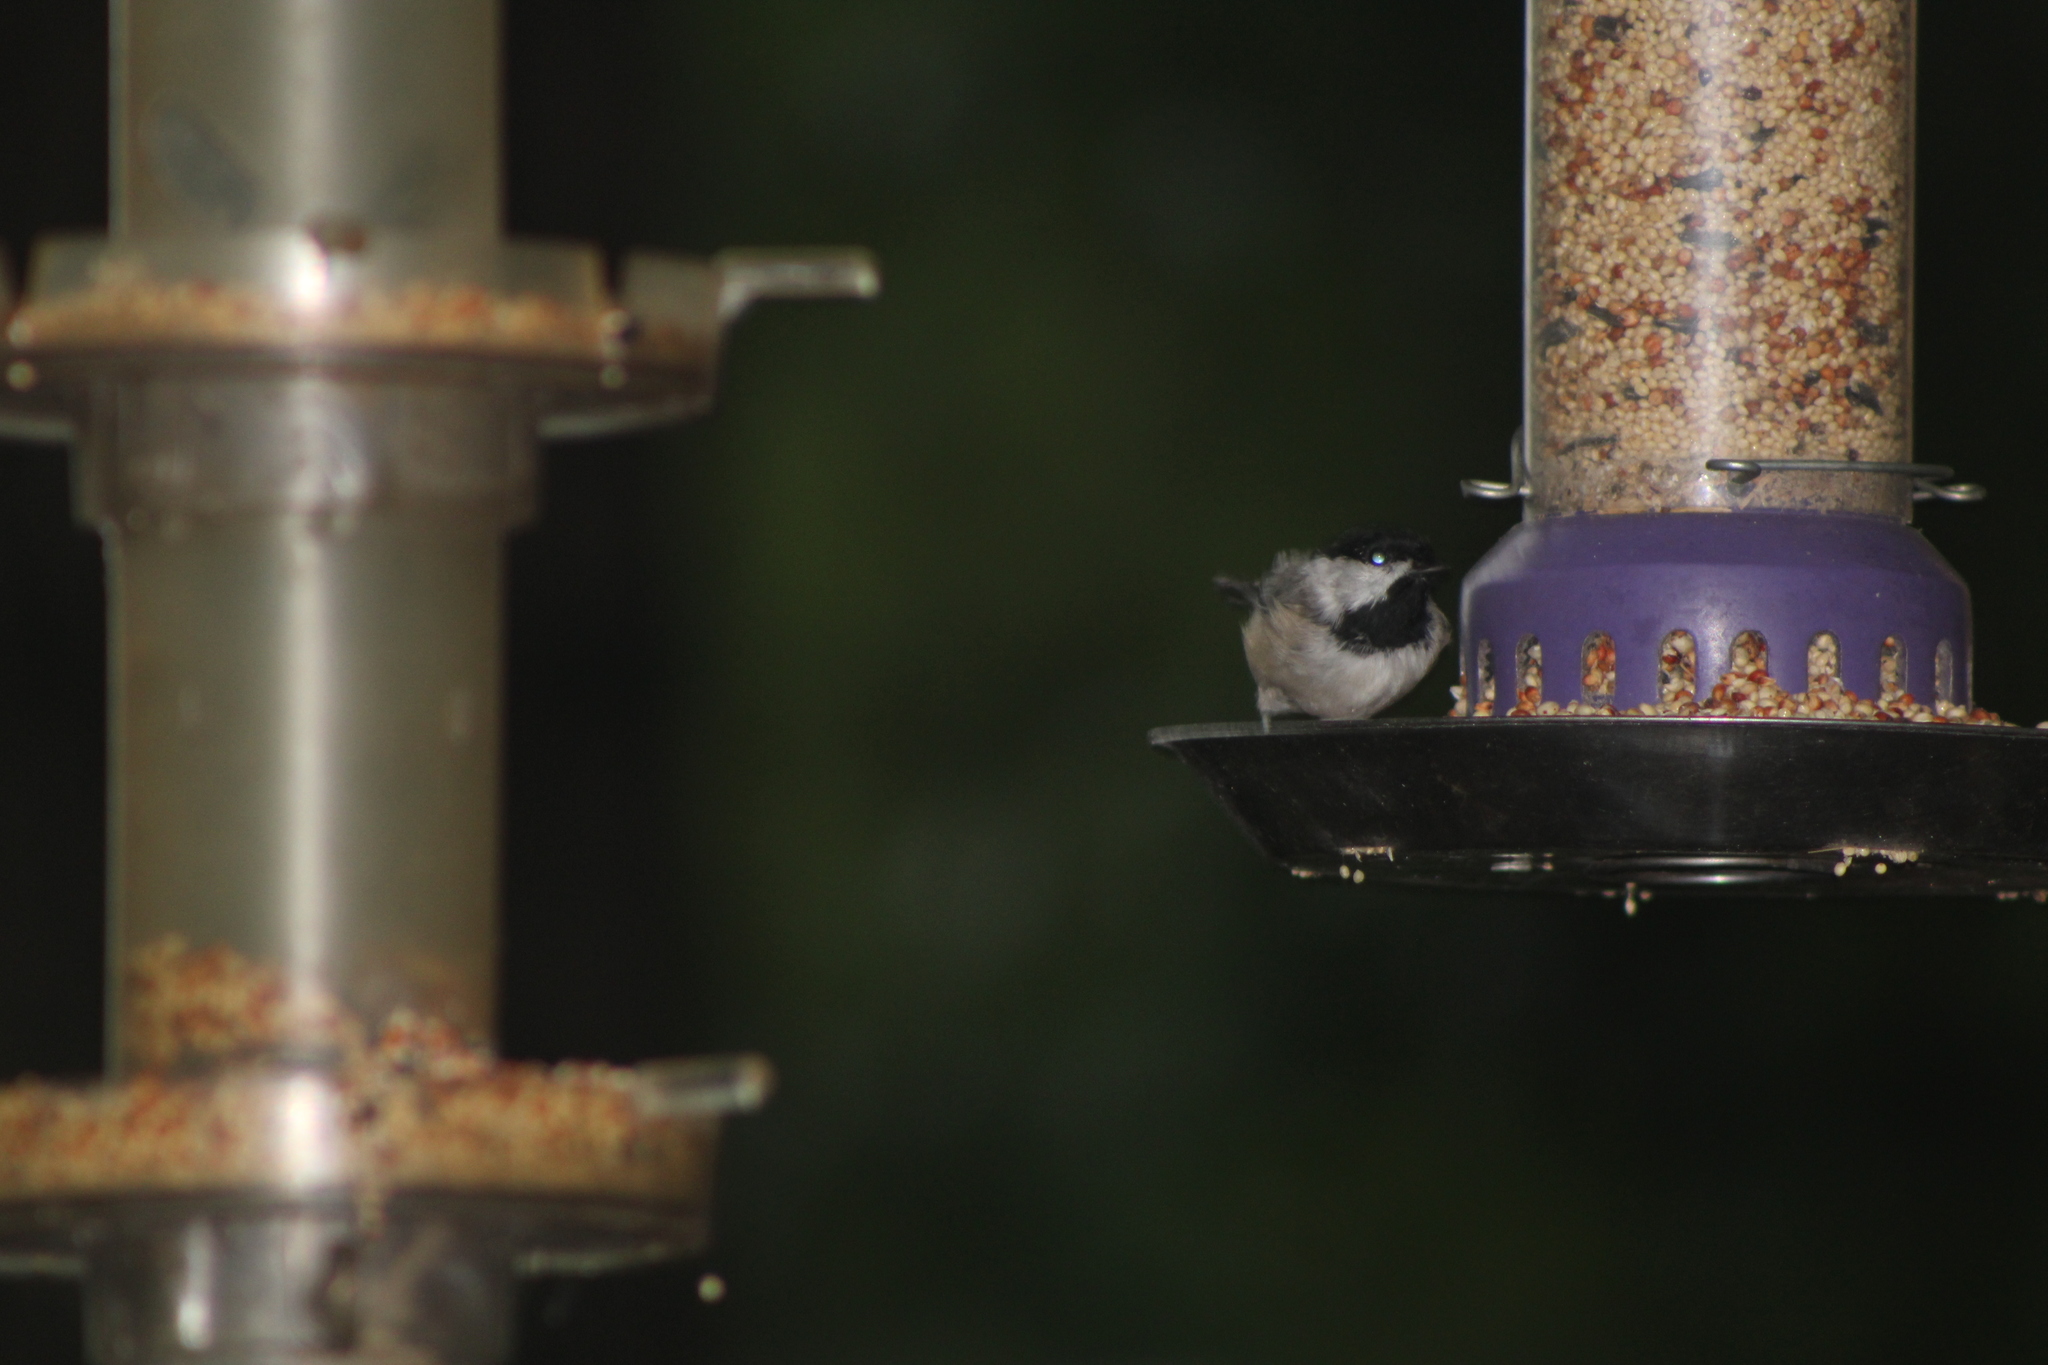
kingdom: Animalia
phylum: Chordata
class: Aves
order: Passeriformes
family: Paridae
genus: Poecile
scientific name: Poecile carolinensis
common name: Carolina chickadee
